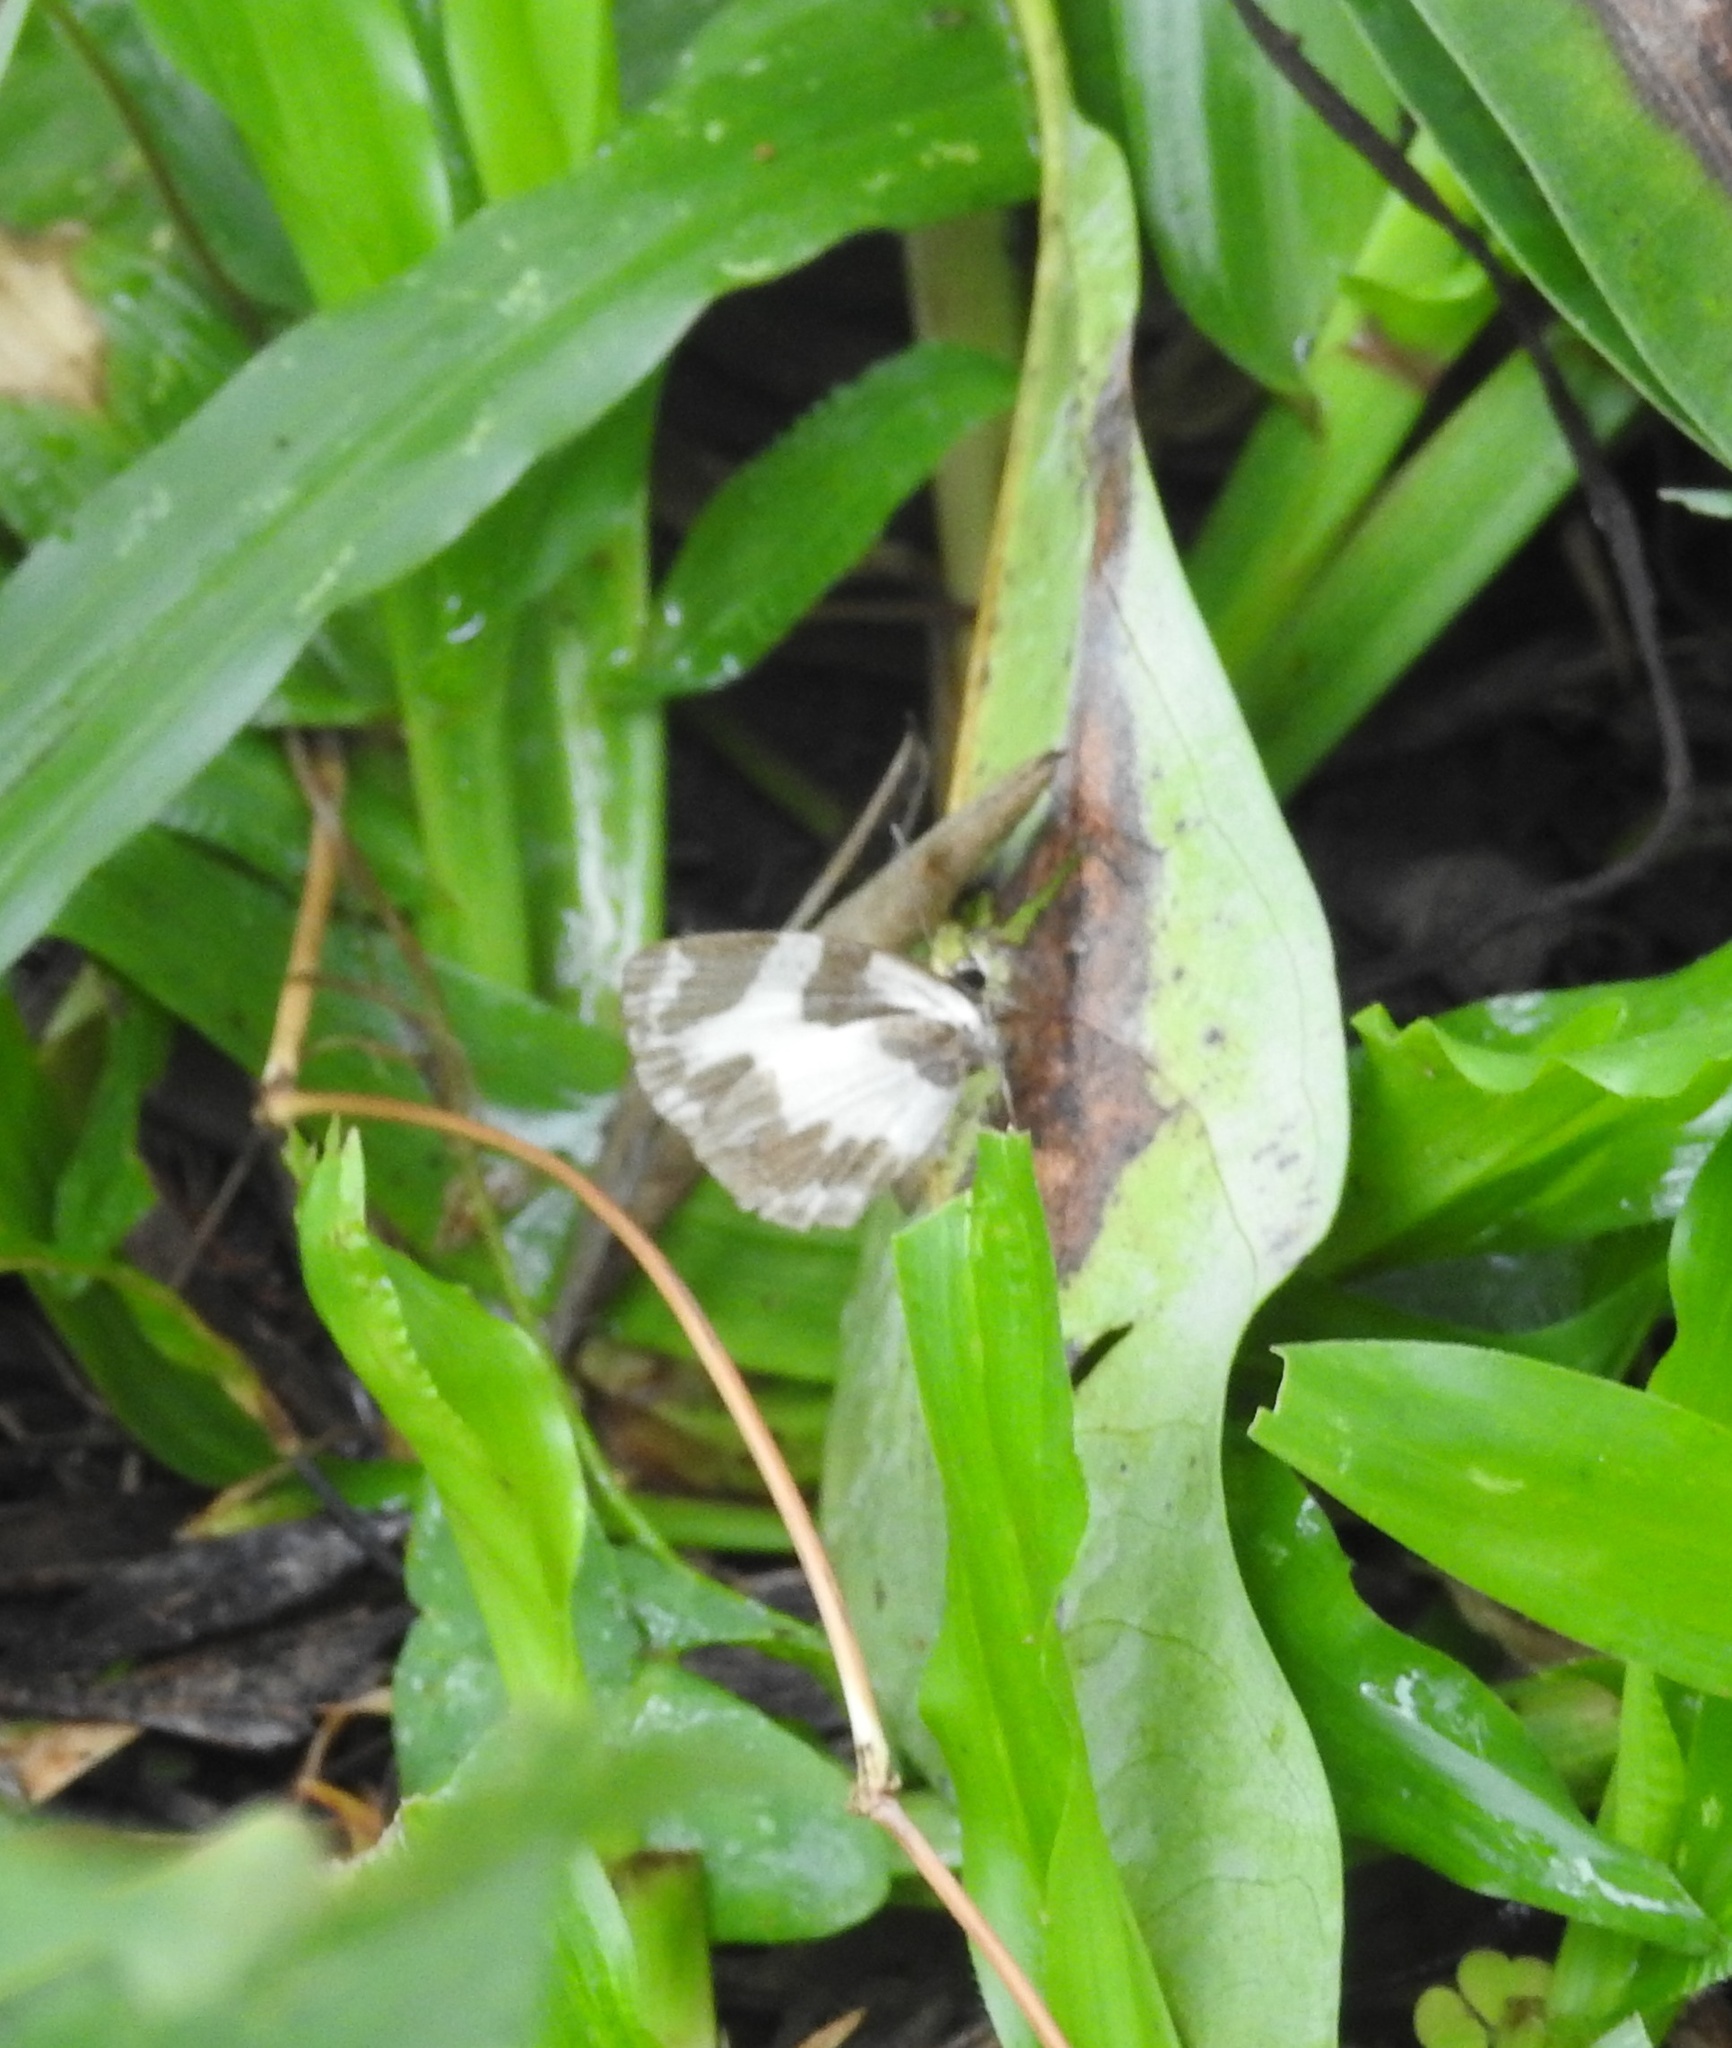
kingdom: Animalia
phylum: Arthropoda
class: Insecta
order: Lepidoptera
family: Lycaenidae
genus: Caleta
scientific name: Caleta elna
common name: Elbowed pierrot
